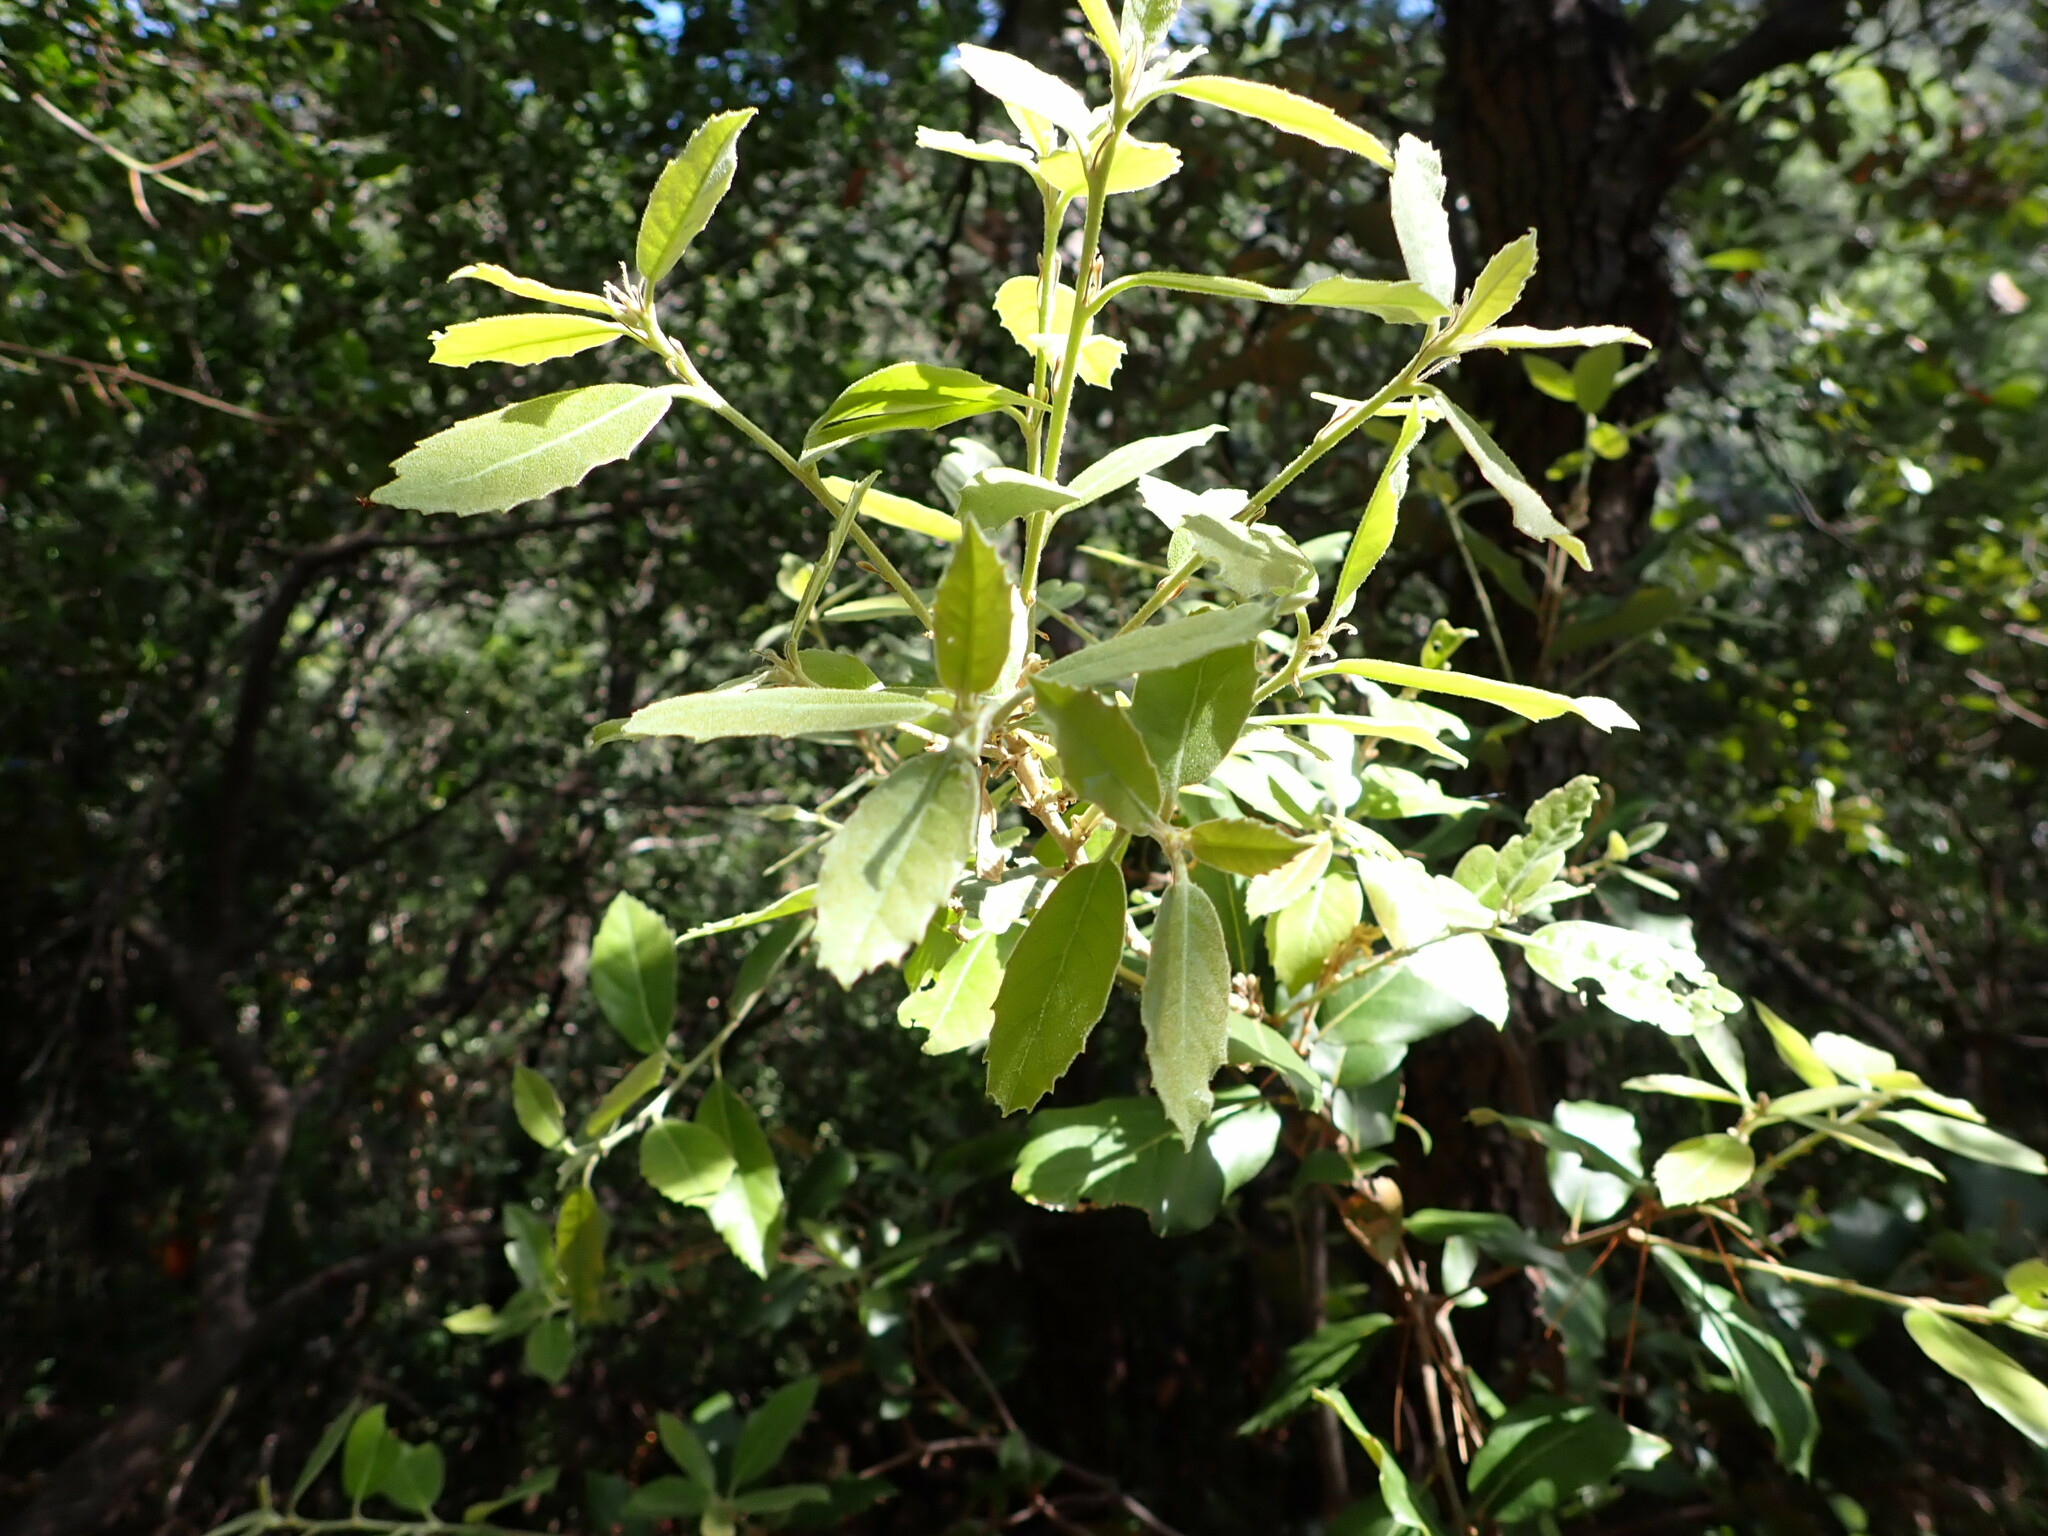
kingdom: Plantae
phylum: Tracheophyta
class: Magnoliopsida
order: Fagales
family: Fagaceae
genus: Quercus
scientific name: Quercus ilex
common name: Evergreen oak
